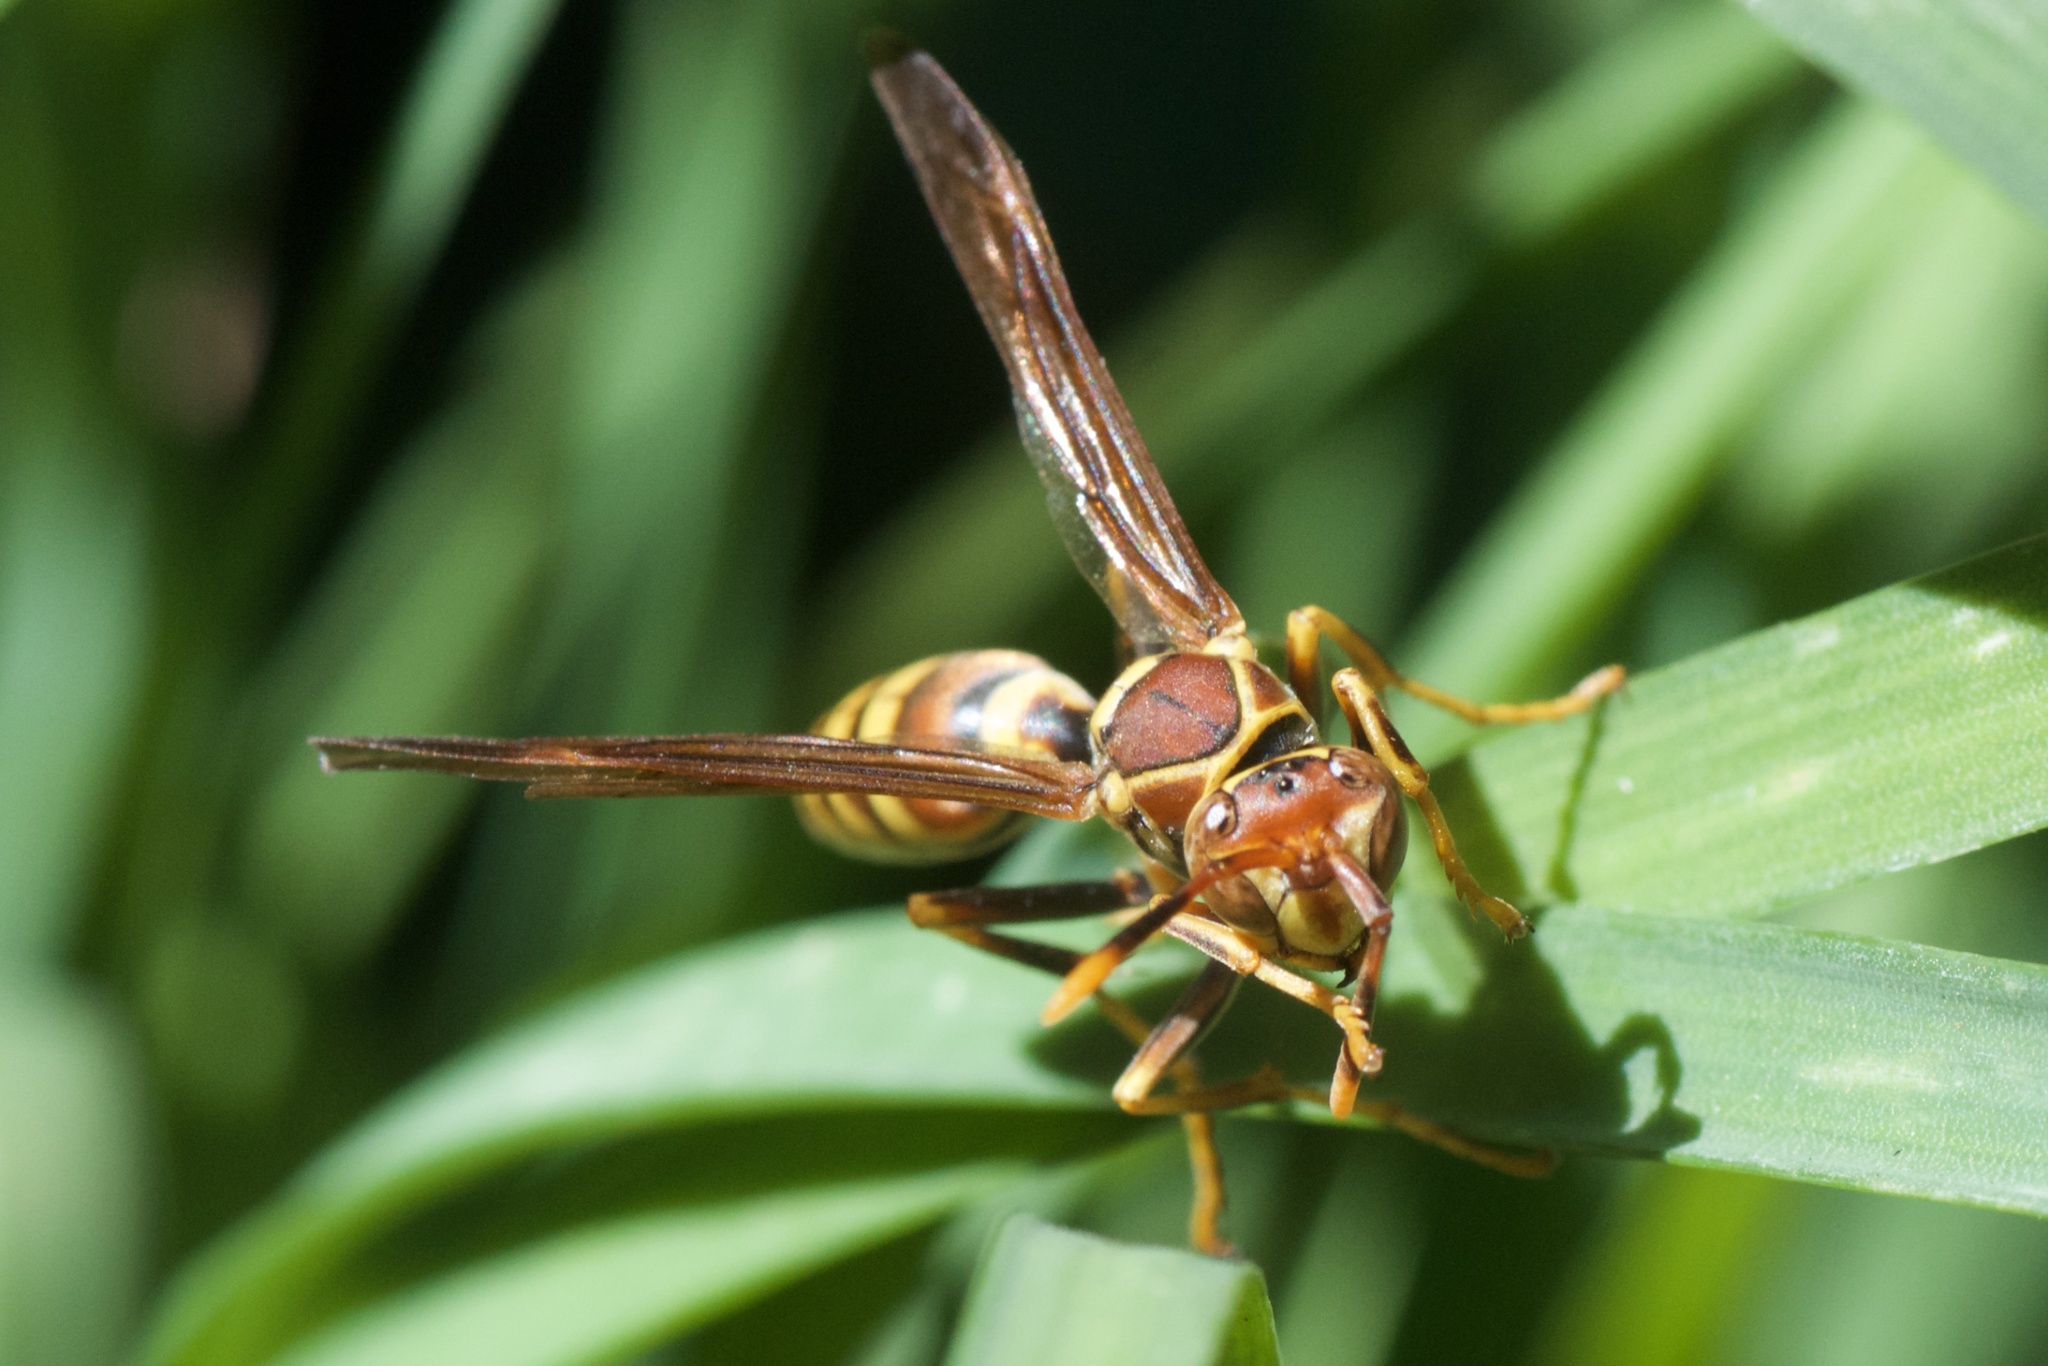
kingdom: Animalia
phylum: Arthropoda
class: Insecta
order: Hymenoptera
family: Eumenidae
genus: Polistes
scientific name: Polistes exclamans
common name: Paper wasp
